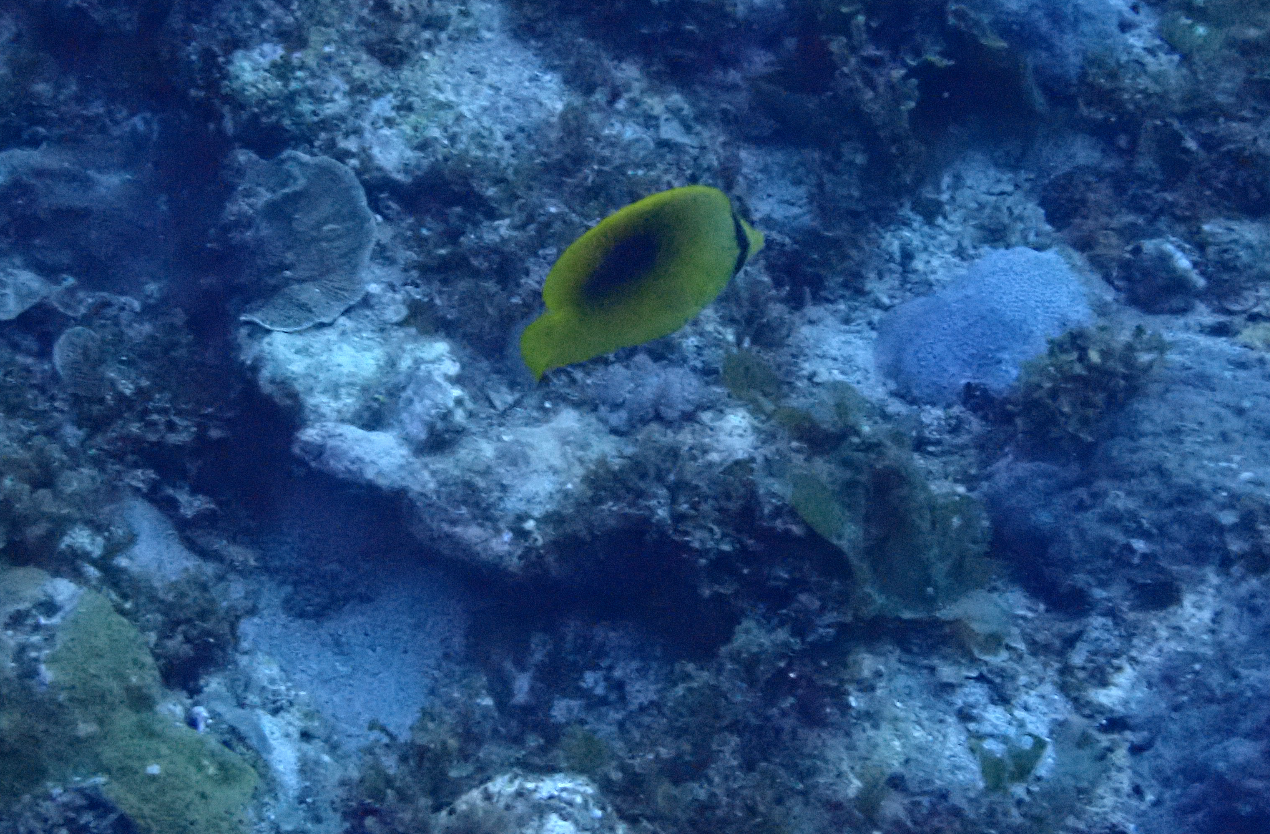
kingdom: Animalia
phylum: Chordata
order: Perciformes
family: Chaetodontidae
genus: Chaetodon
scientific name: Chaetodon speculum
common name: Mirror butterflyfish
